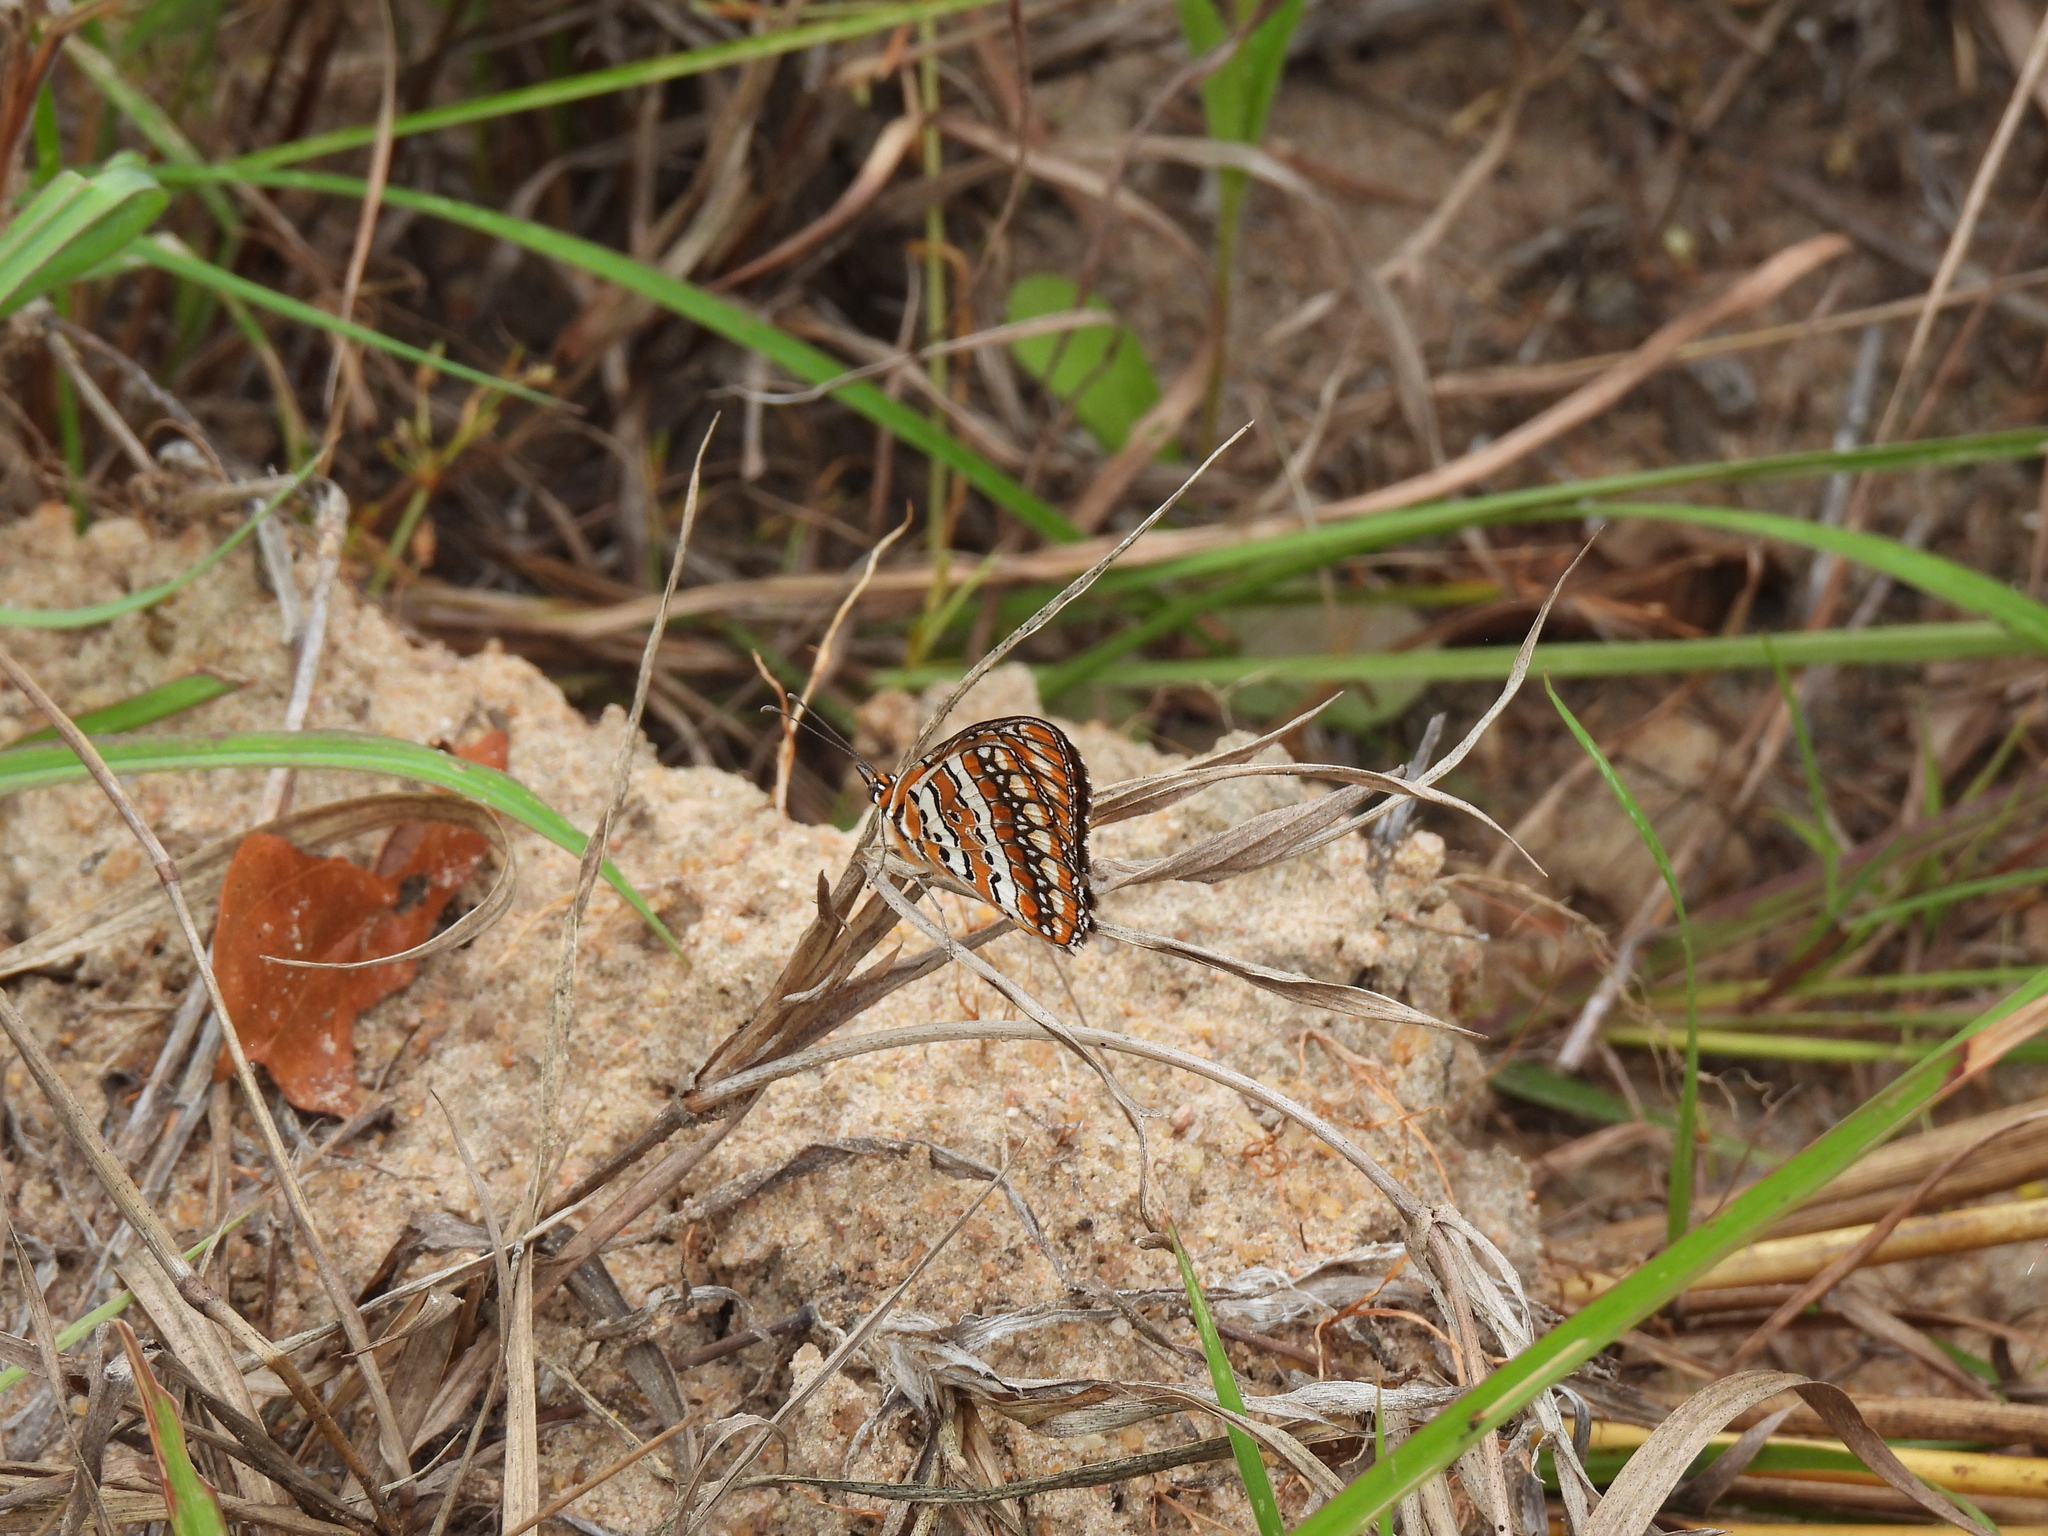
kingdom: Animalia
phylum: Arthropoda
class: Insecta
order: Lepidoptera
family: Nymphalidae
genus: Byblia
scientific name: Byblia ilithyia
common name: Spotted joker
